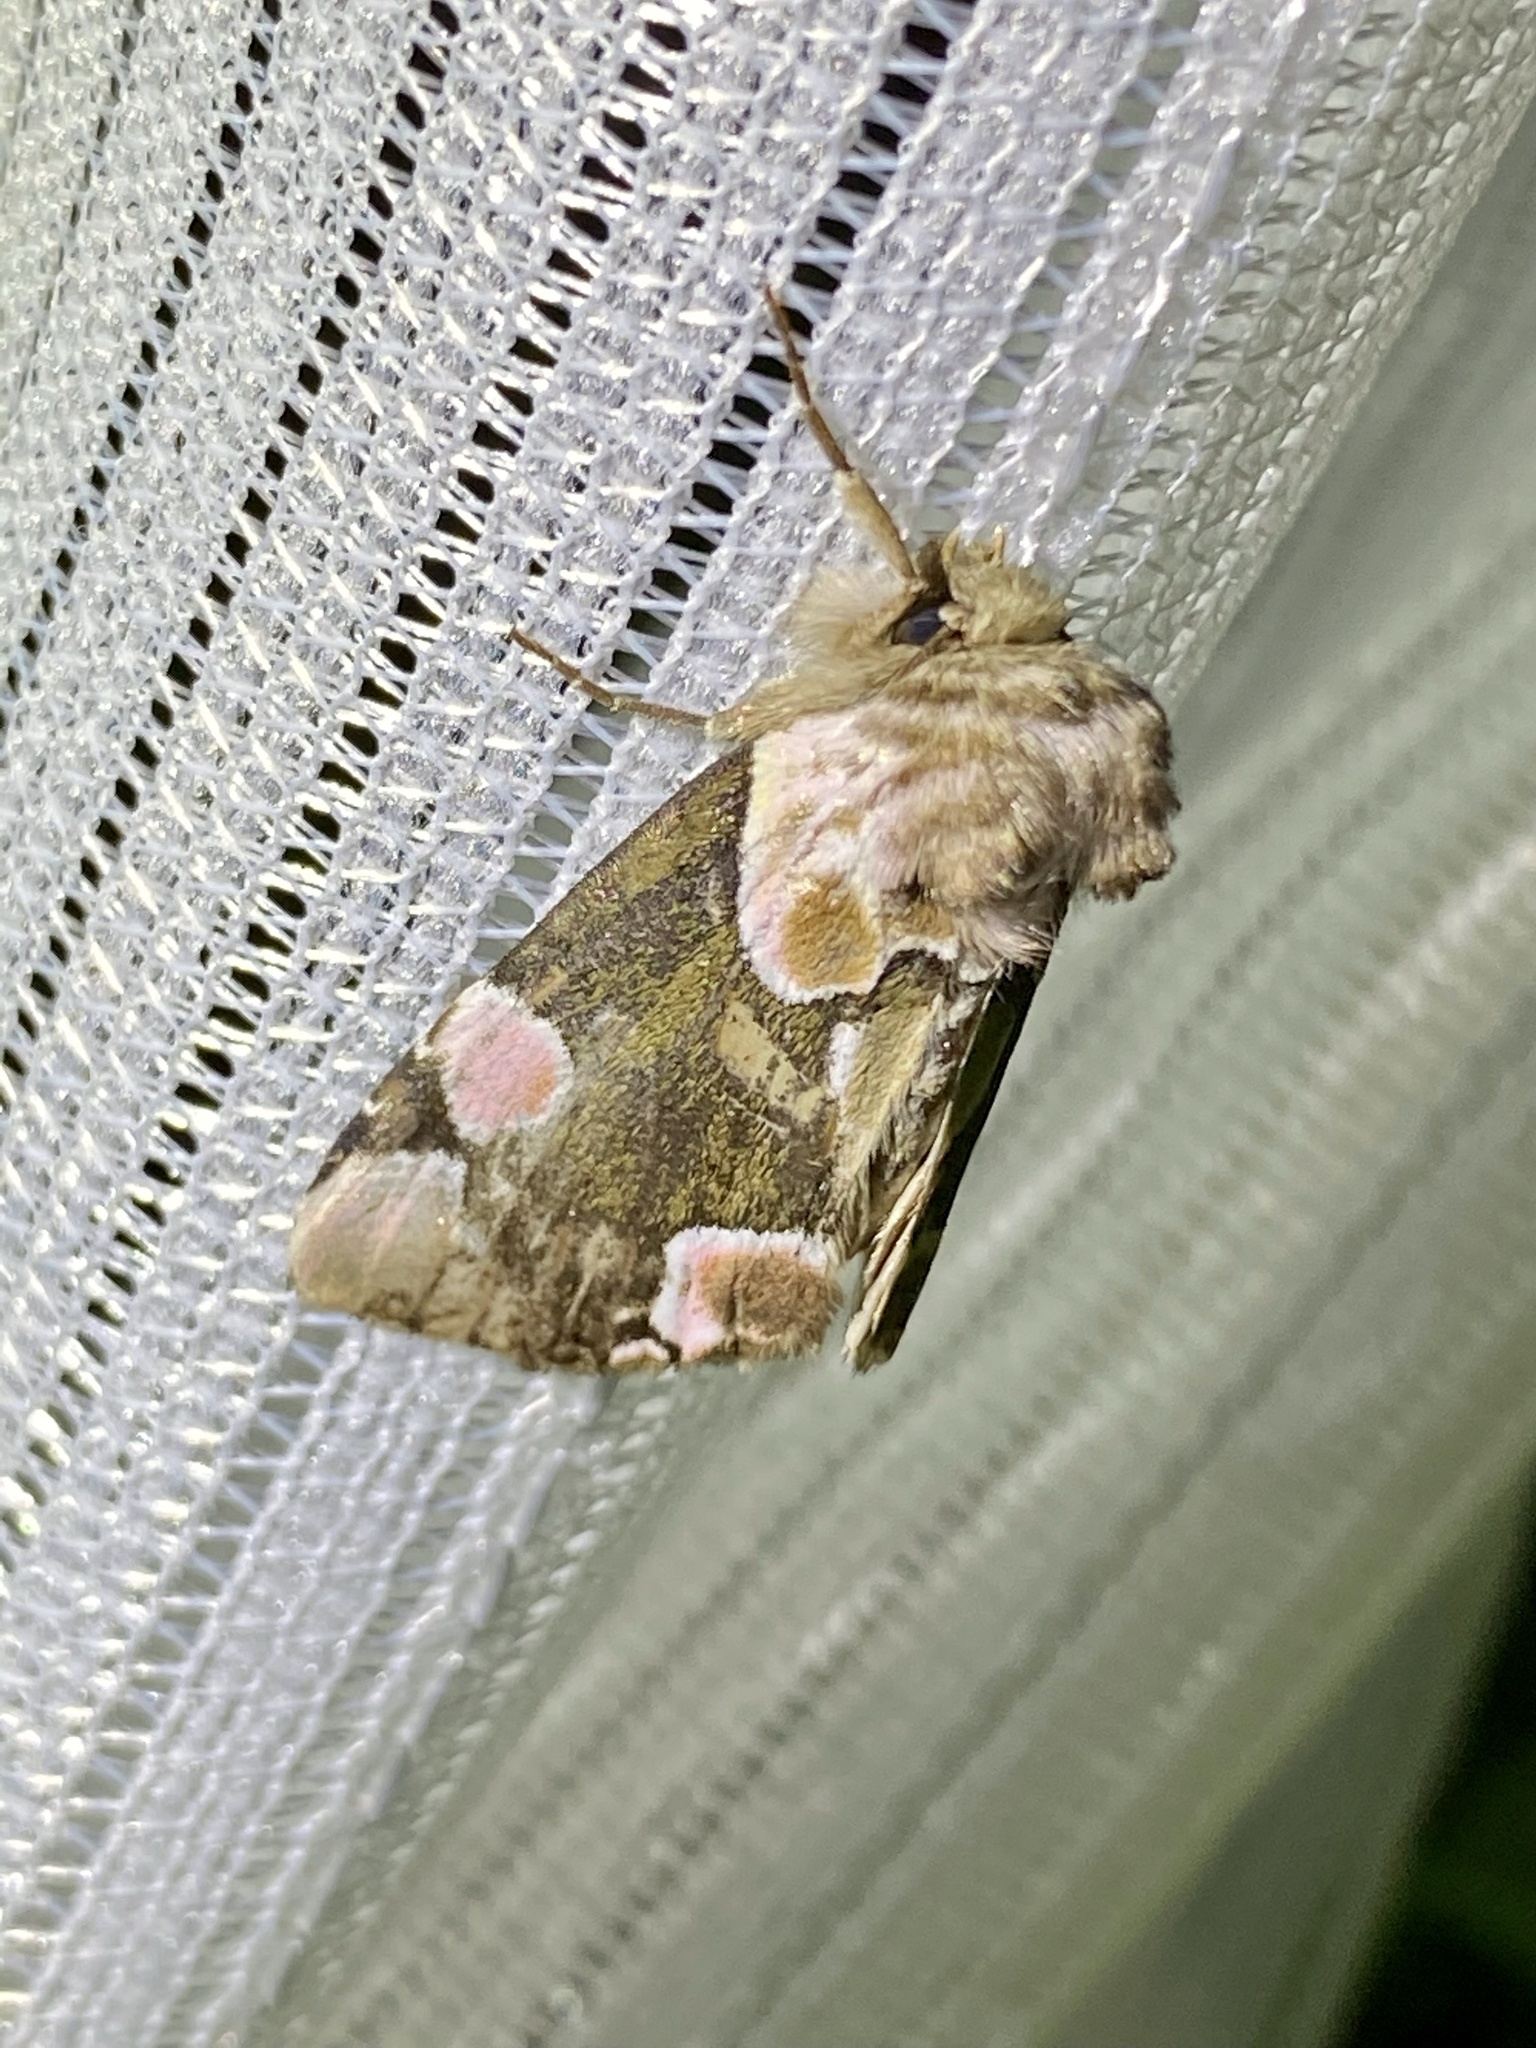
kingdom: Animalia
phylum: Arthropoda
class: Insecta
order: Lepidoptera
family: Drepanidae
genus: Thyatira
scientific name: Thyatira batis
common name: Peach blossom
